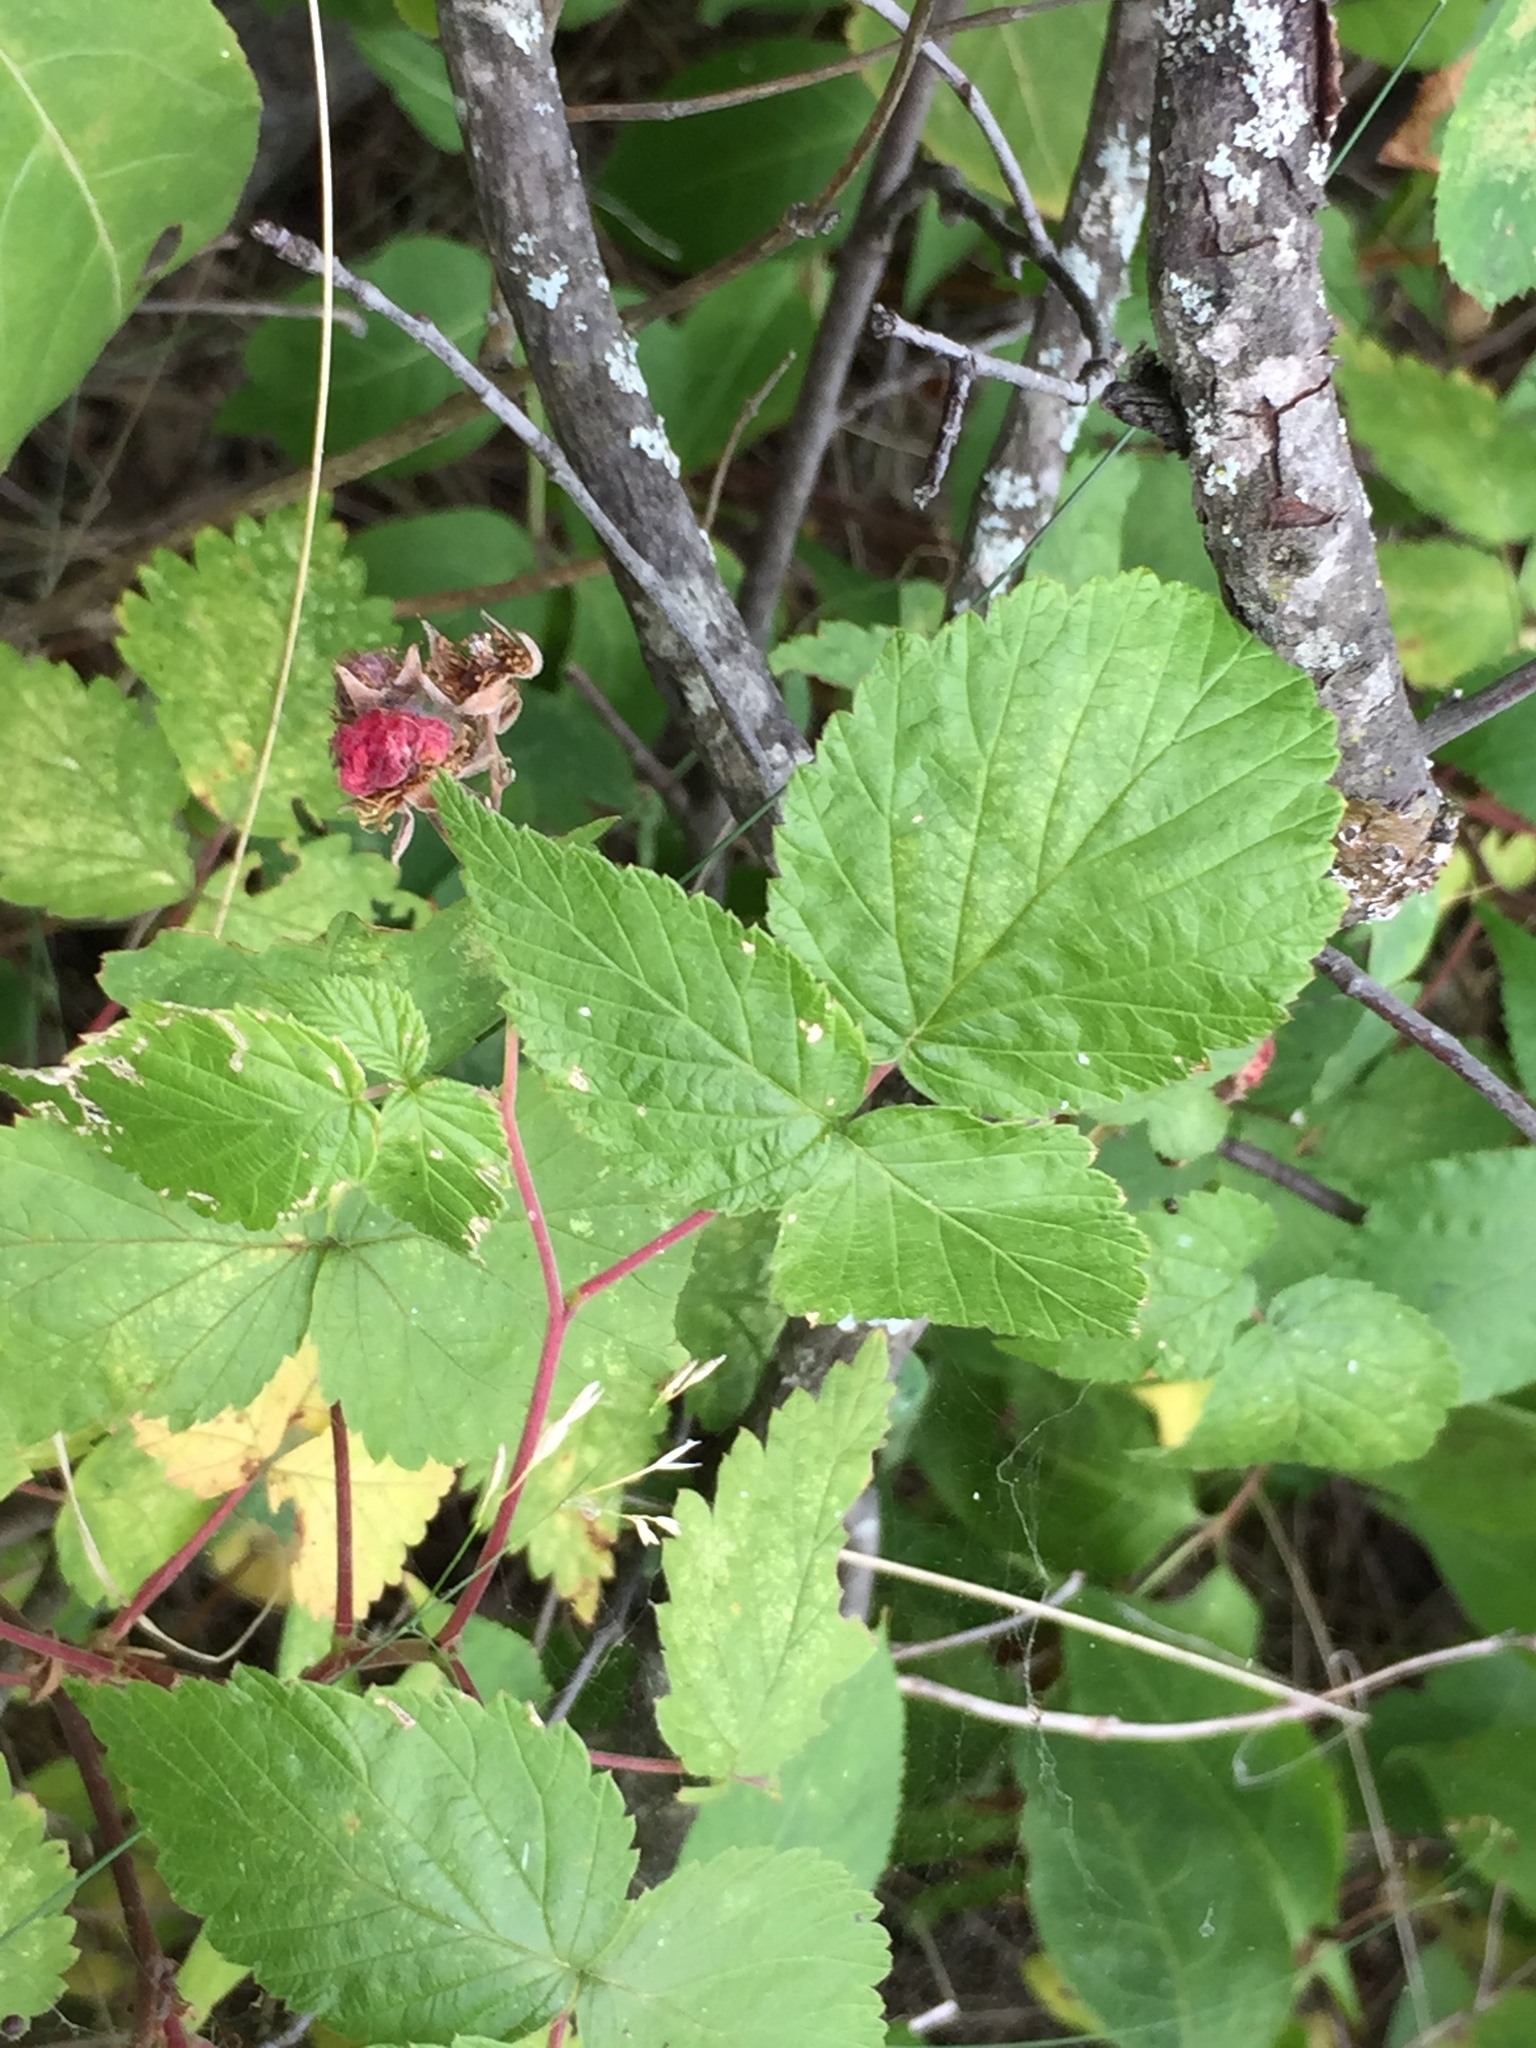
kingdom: Plantae
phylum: Tracheophyta
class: Magnoliopsida
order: Rosales
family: Rosaceae
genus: Rubus
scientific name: Rubus idaeus
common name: Raspberry
